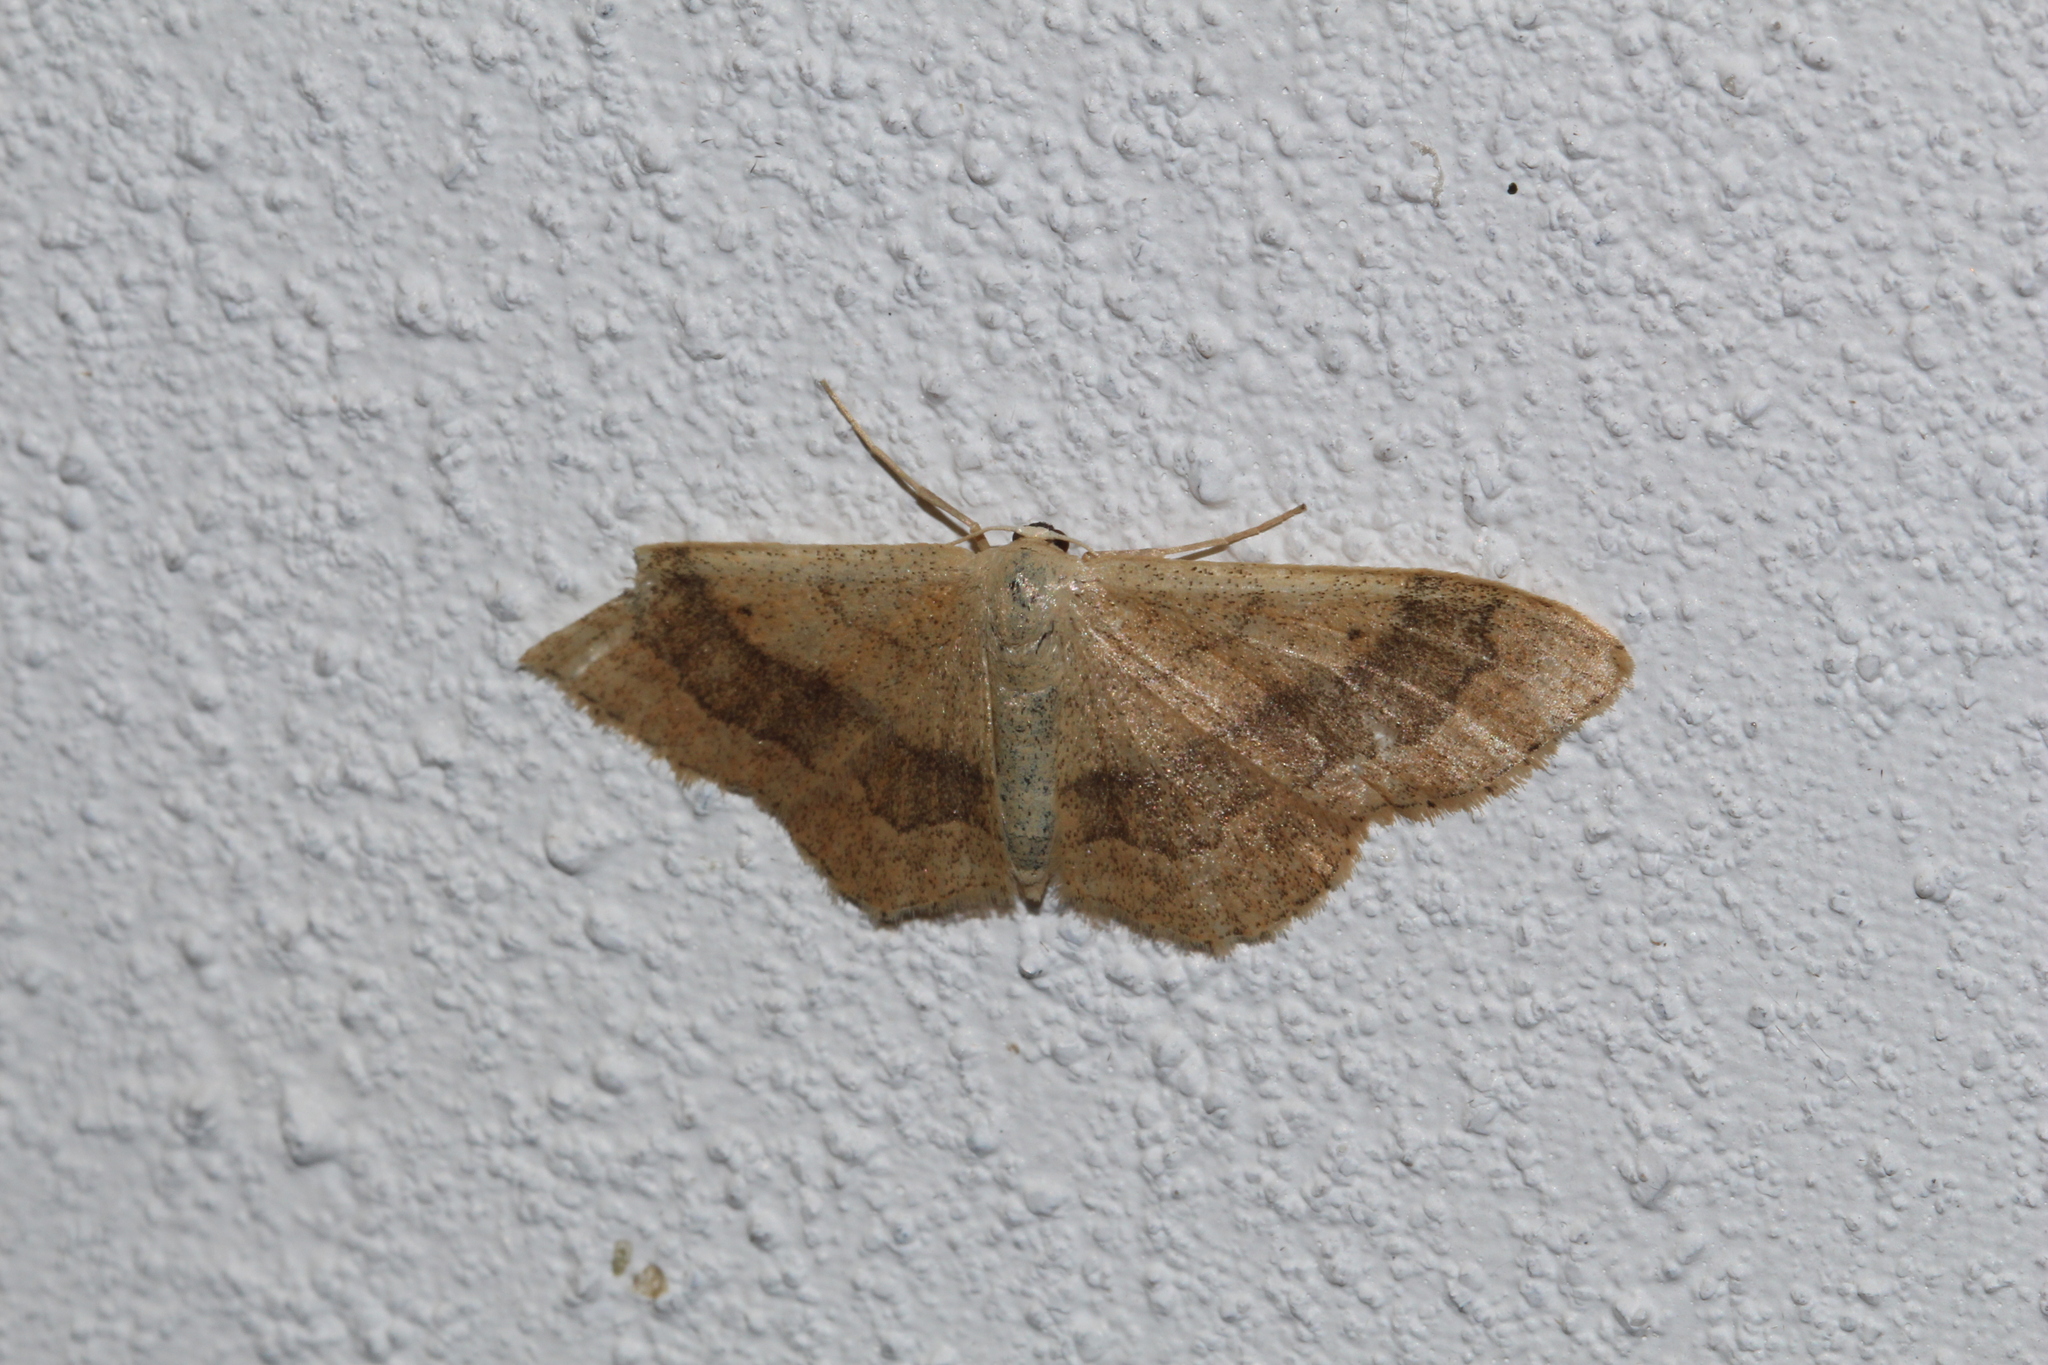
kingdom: Animalia
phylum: Arthropoda
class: Insecta
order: Lepidoptera
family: Geometridae
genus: Idaea
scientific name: Idaea aversata
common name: Riband wave
